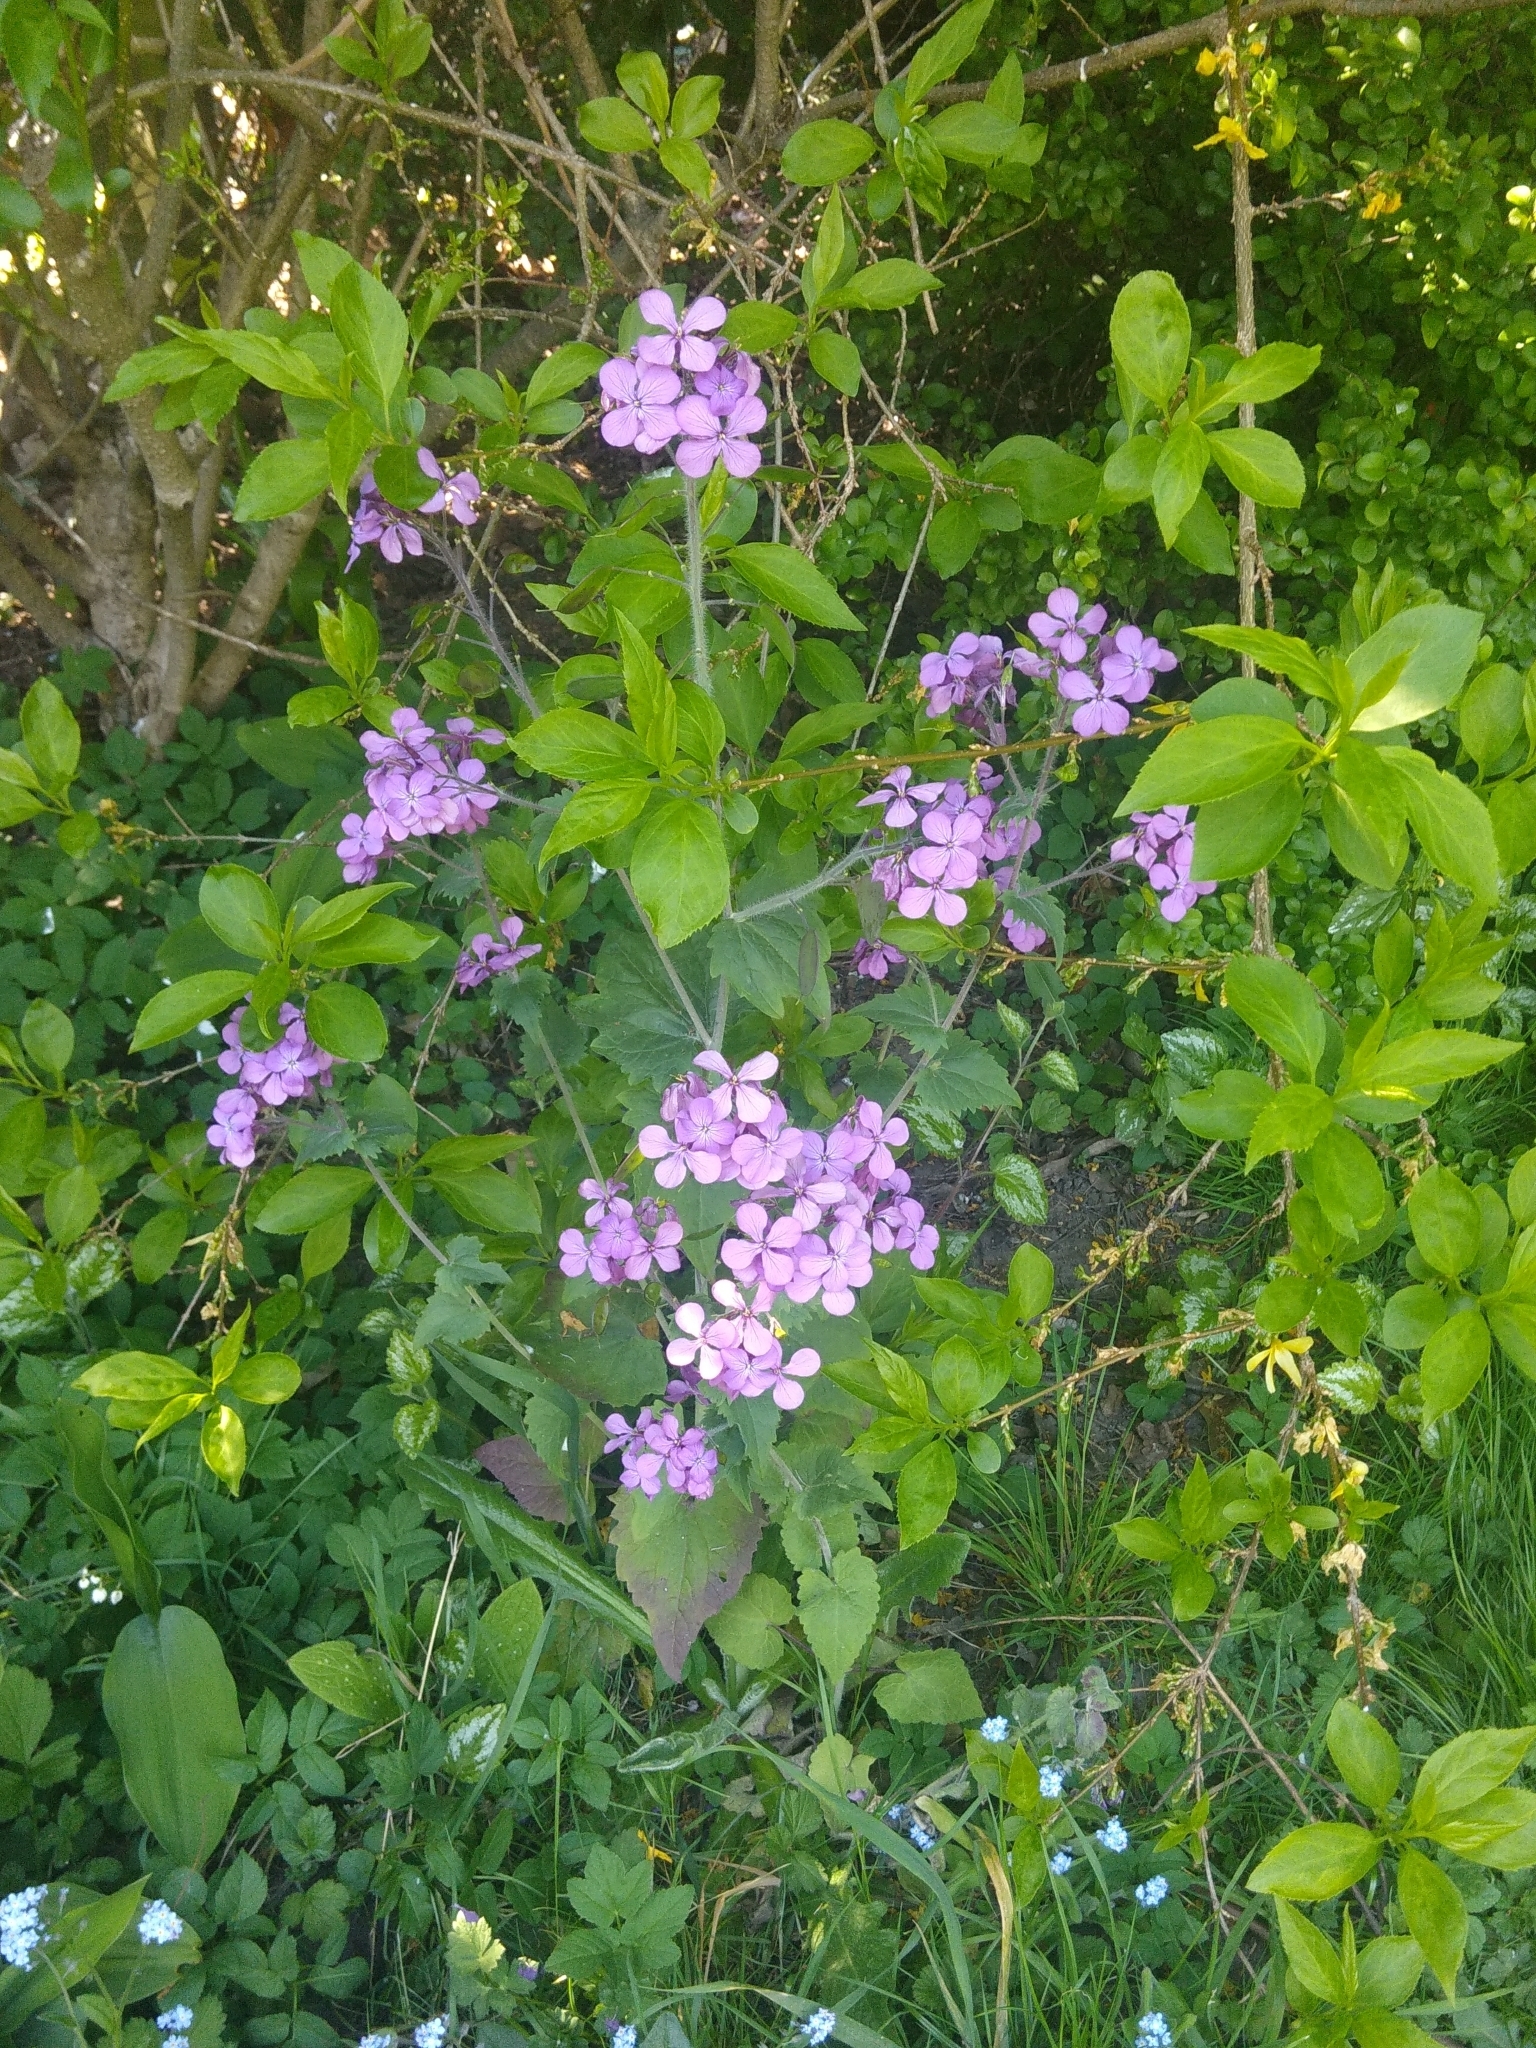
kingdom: Plantae
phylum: Tracheophyta
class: Magnoliopsida
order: Brassicales
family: Brassicaceae
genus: Lunaria
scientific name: Lunaria annua
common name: Honesty
